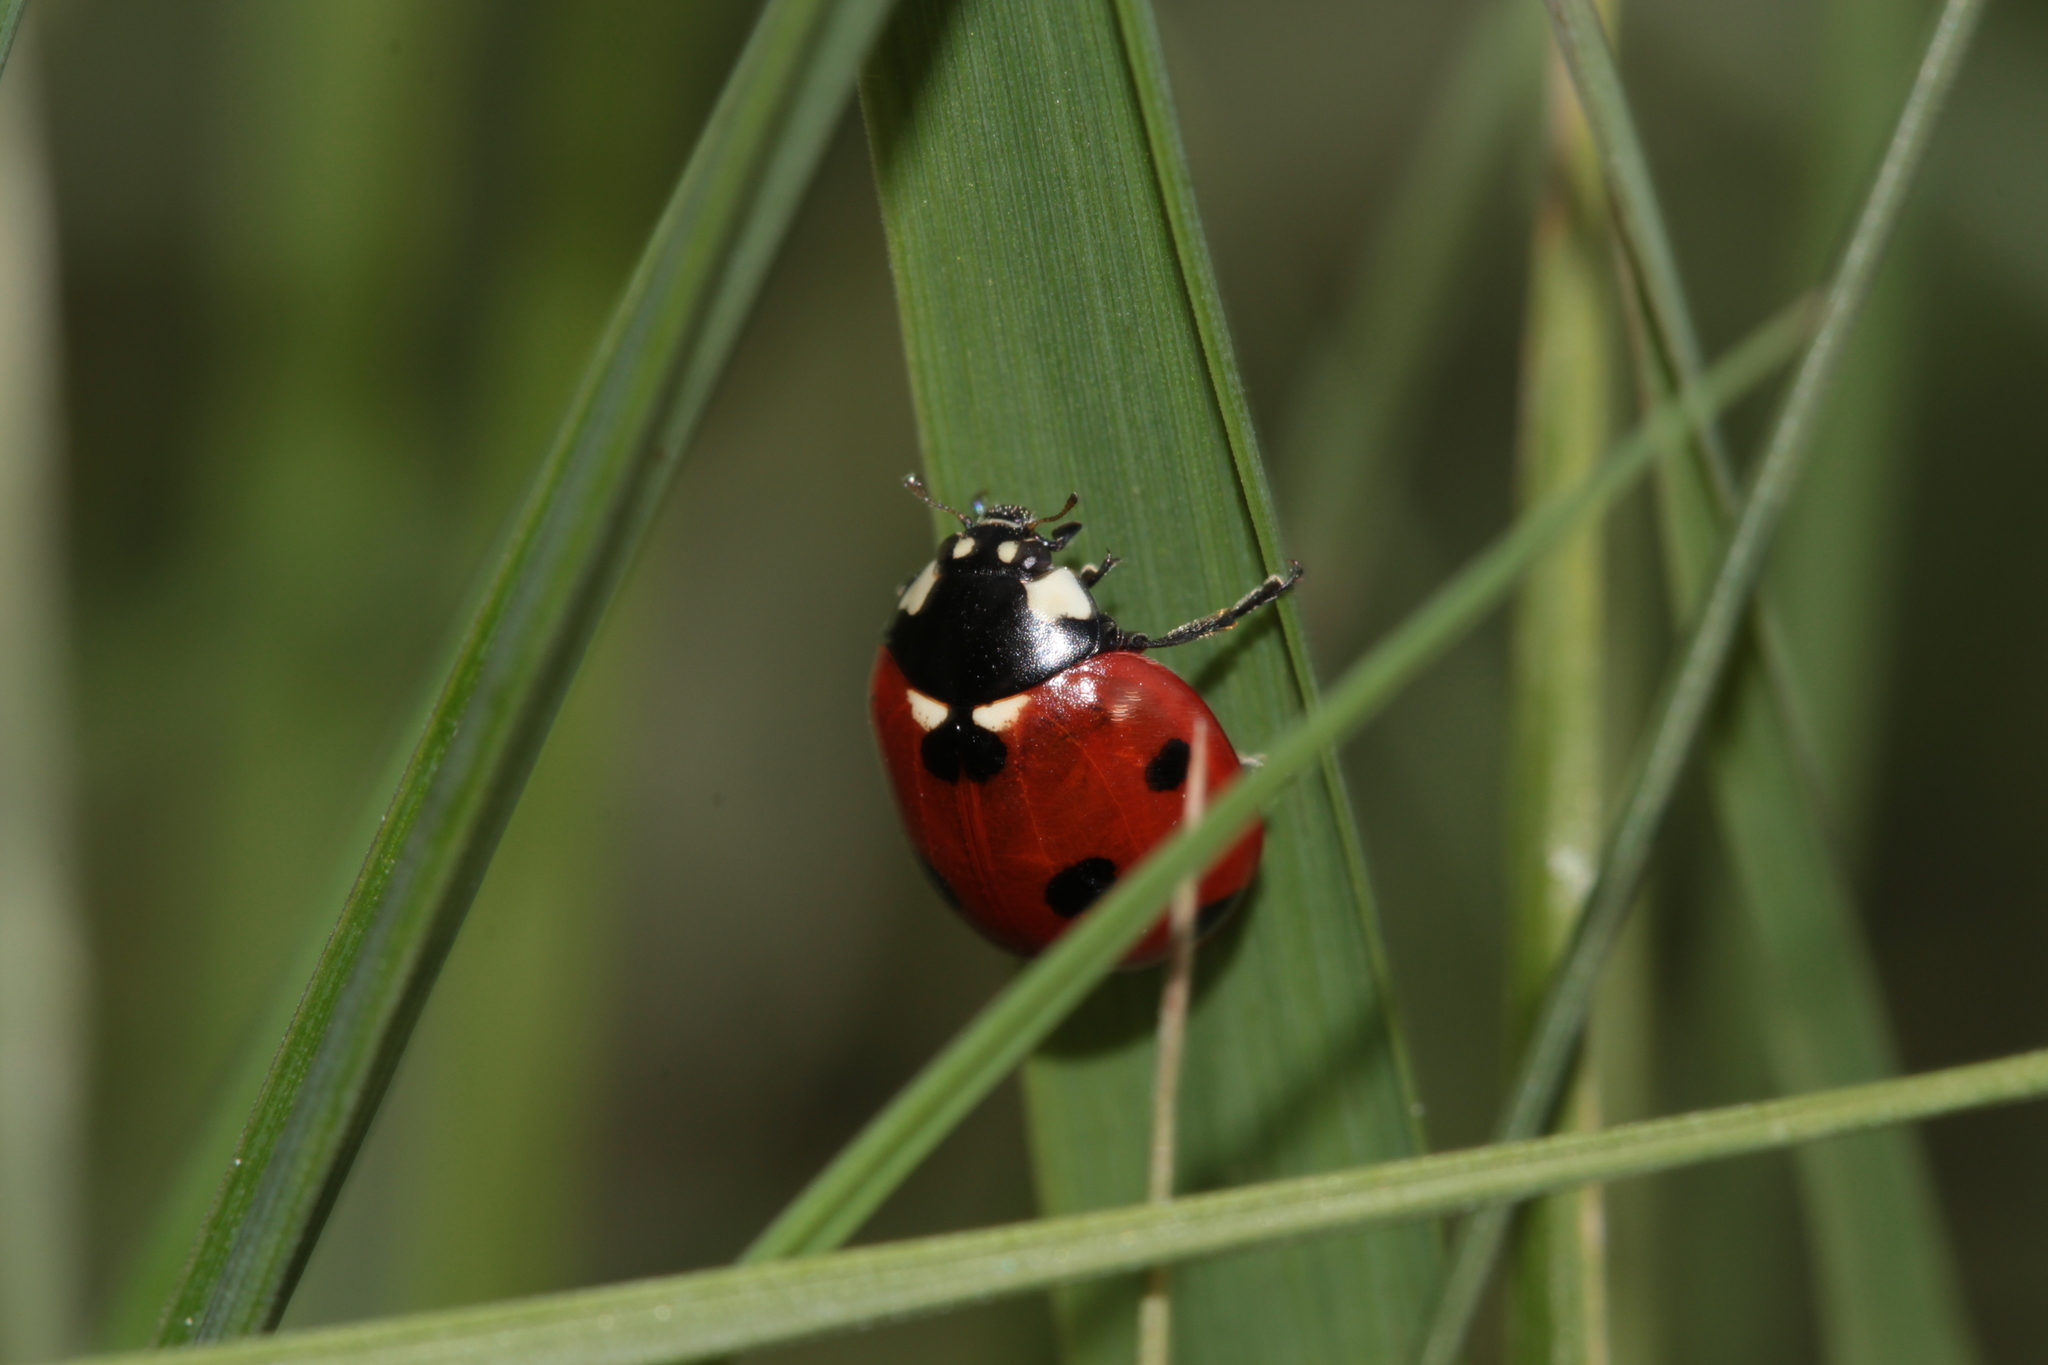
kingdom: Animalia
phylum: Arthropoda
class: Insecta
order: Coleoptera
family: Coccinellidae
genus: Coccinella
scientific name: Coccinella septempunctata
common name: Sevenspotted lady beetle
